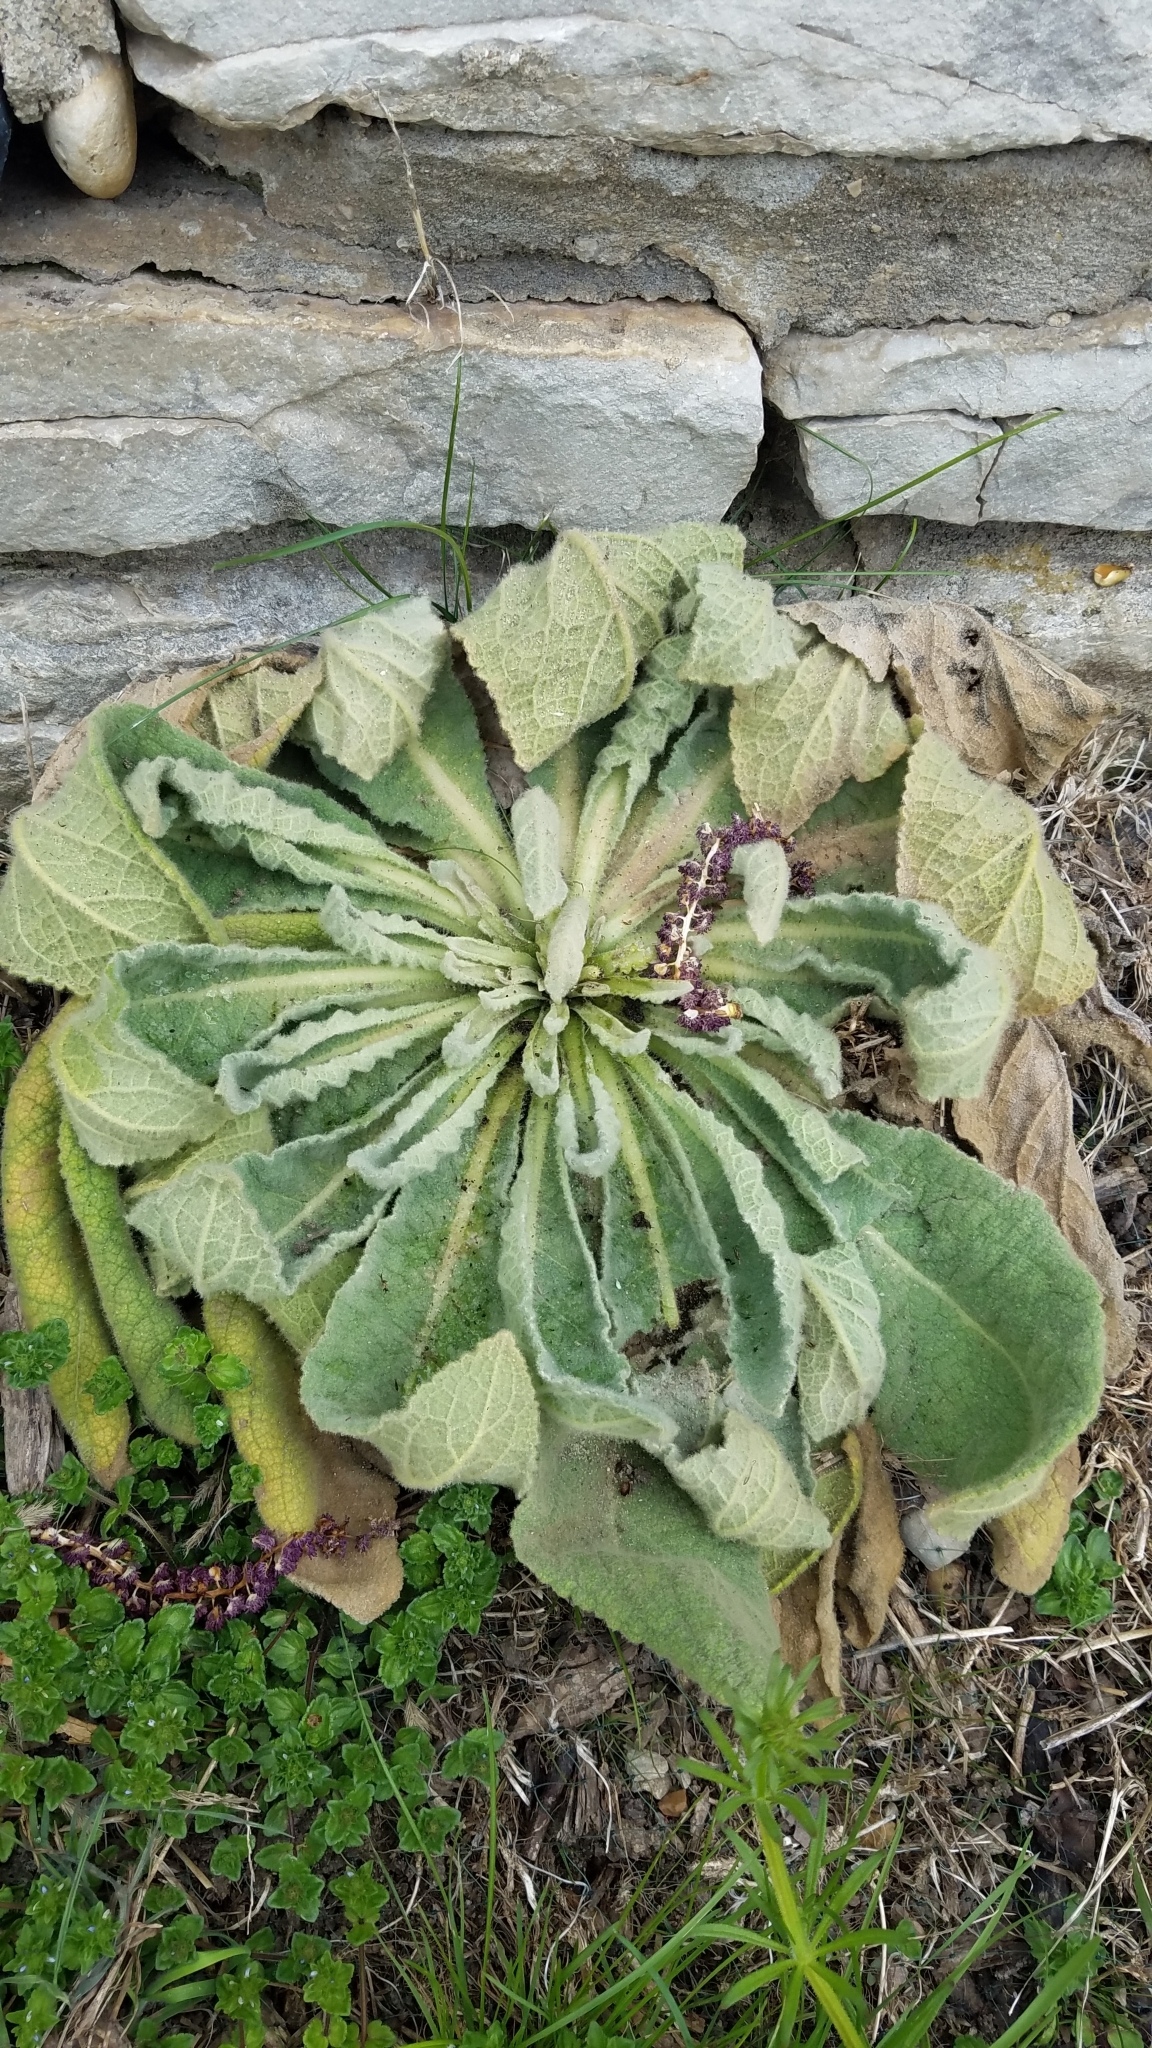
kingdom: Plantae
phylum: Tracheophyta
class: Magnoliopsida
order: Lamiales
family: Scrophulariaceae
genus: Verbascum
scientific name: Verbascum thapsus
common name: Common mullein
